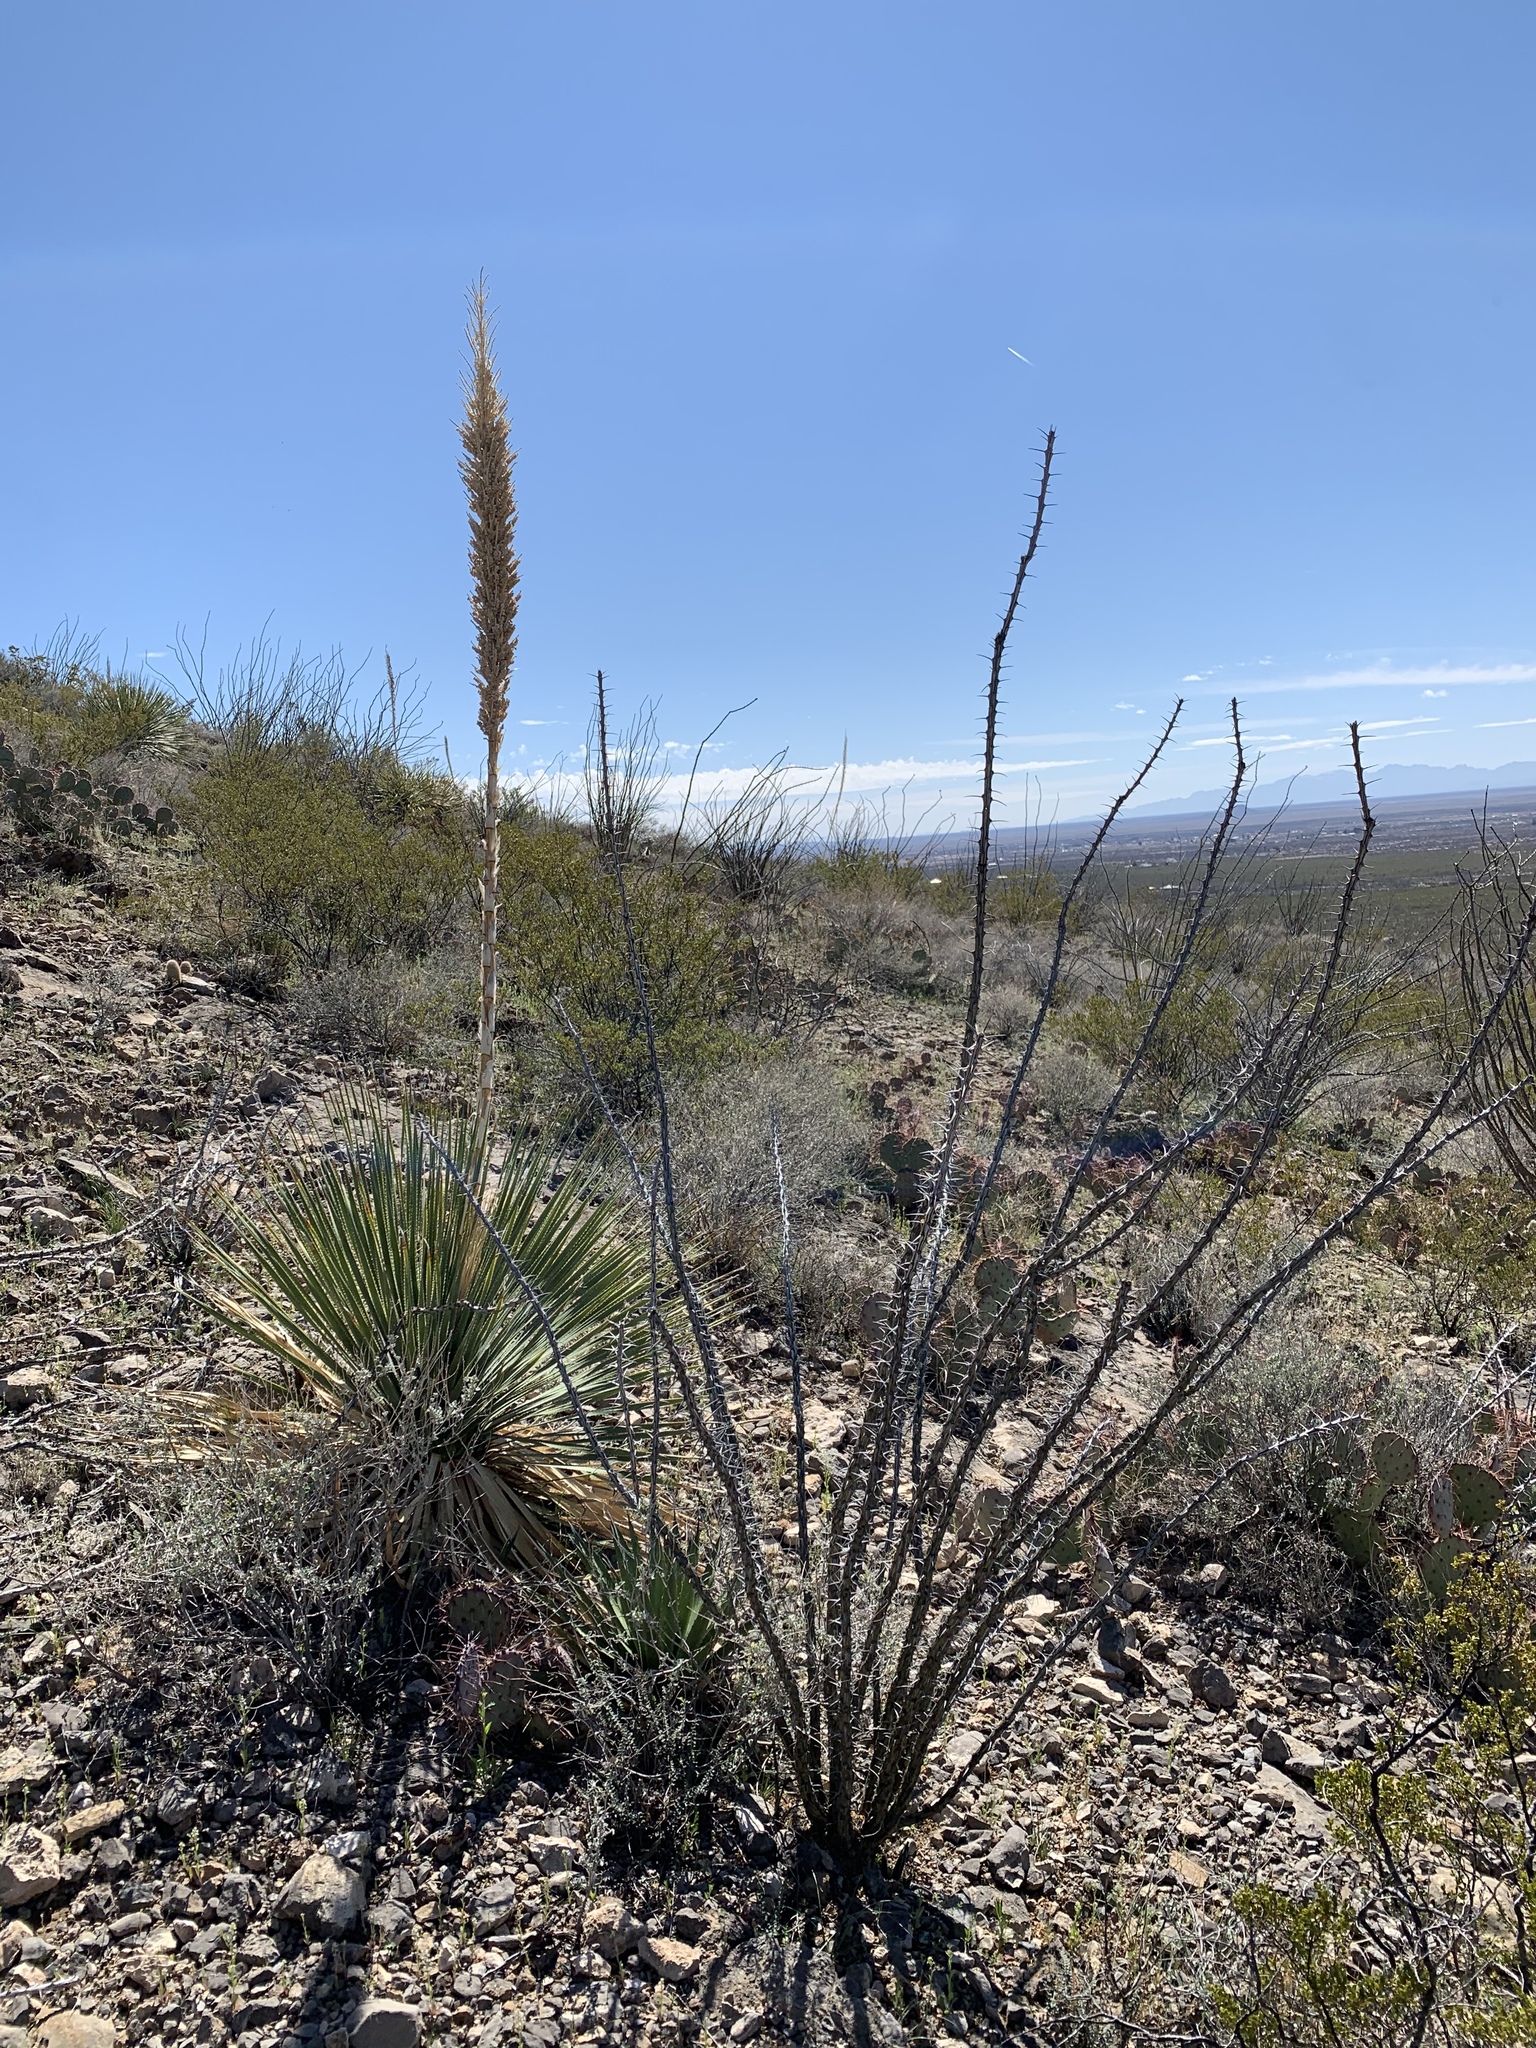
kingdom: Plantae
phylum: Tracheophyta
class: Magnoliopsida
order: Ericales
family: Fouquieriaceae
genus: Fouquieria
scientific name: Fouquieria splendens
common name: Vine-cactus
